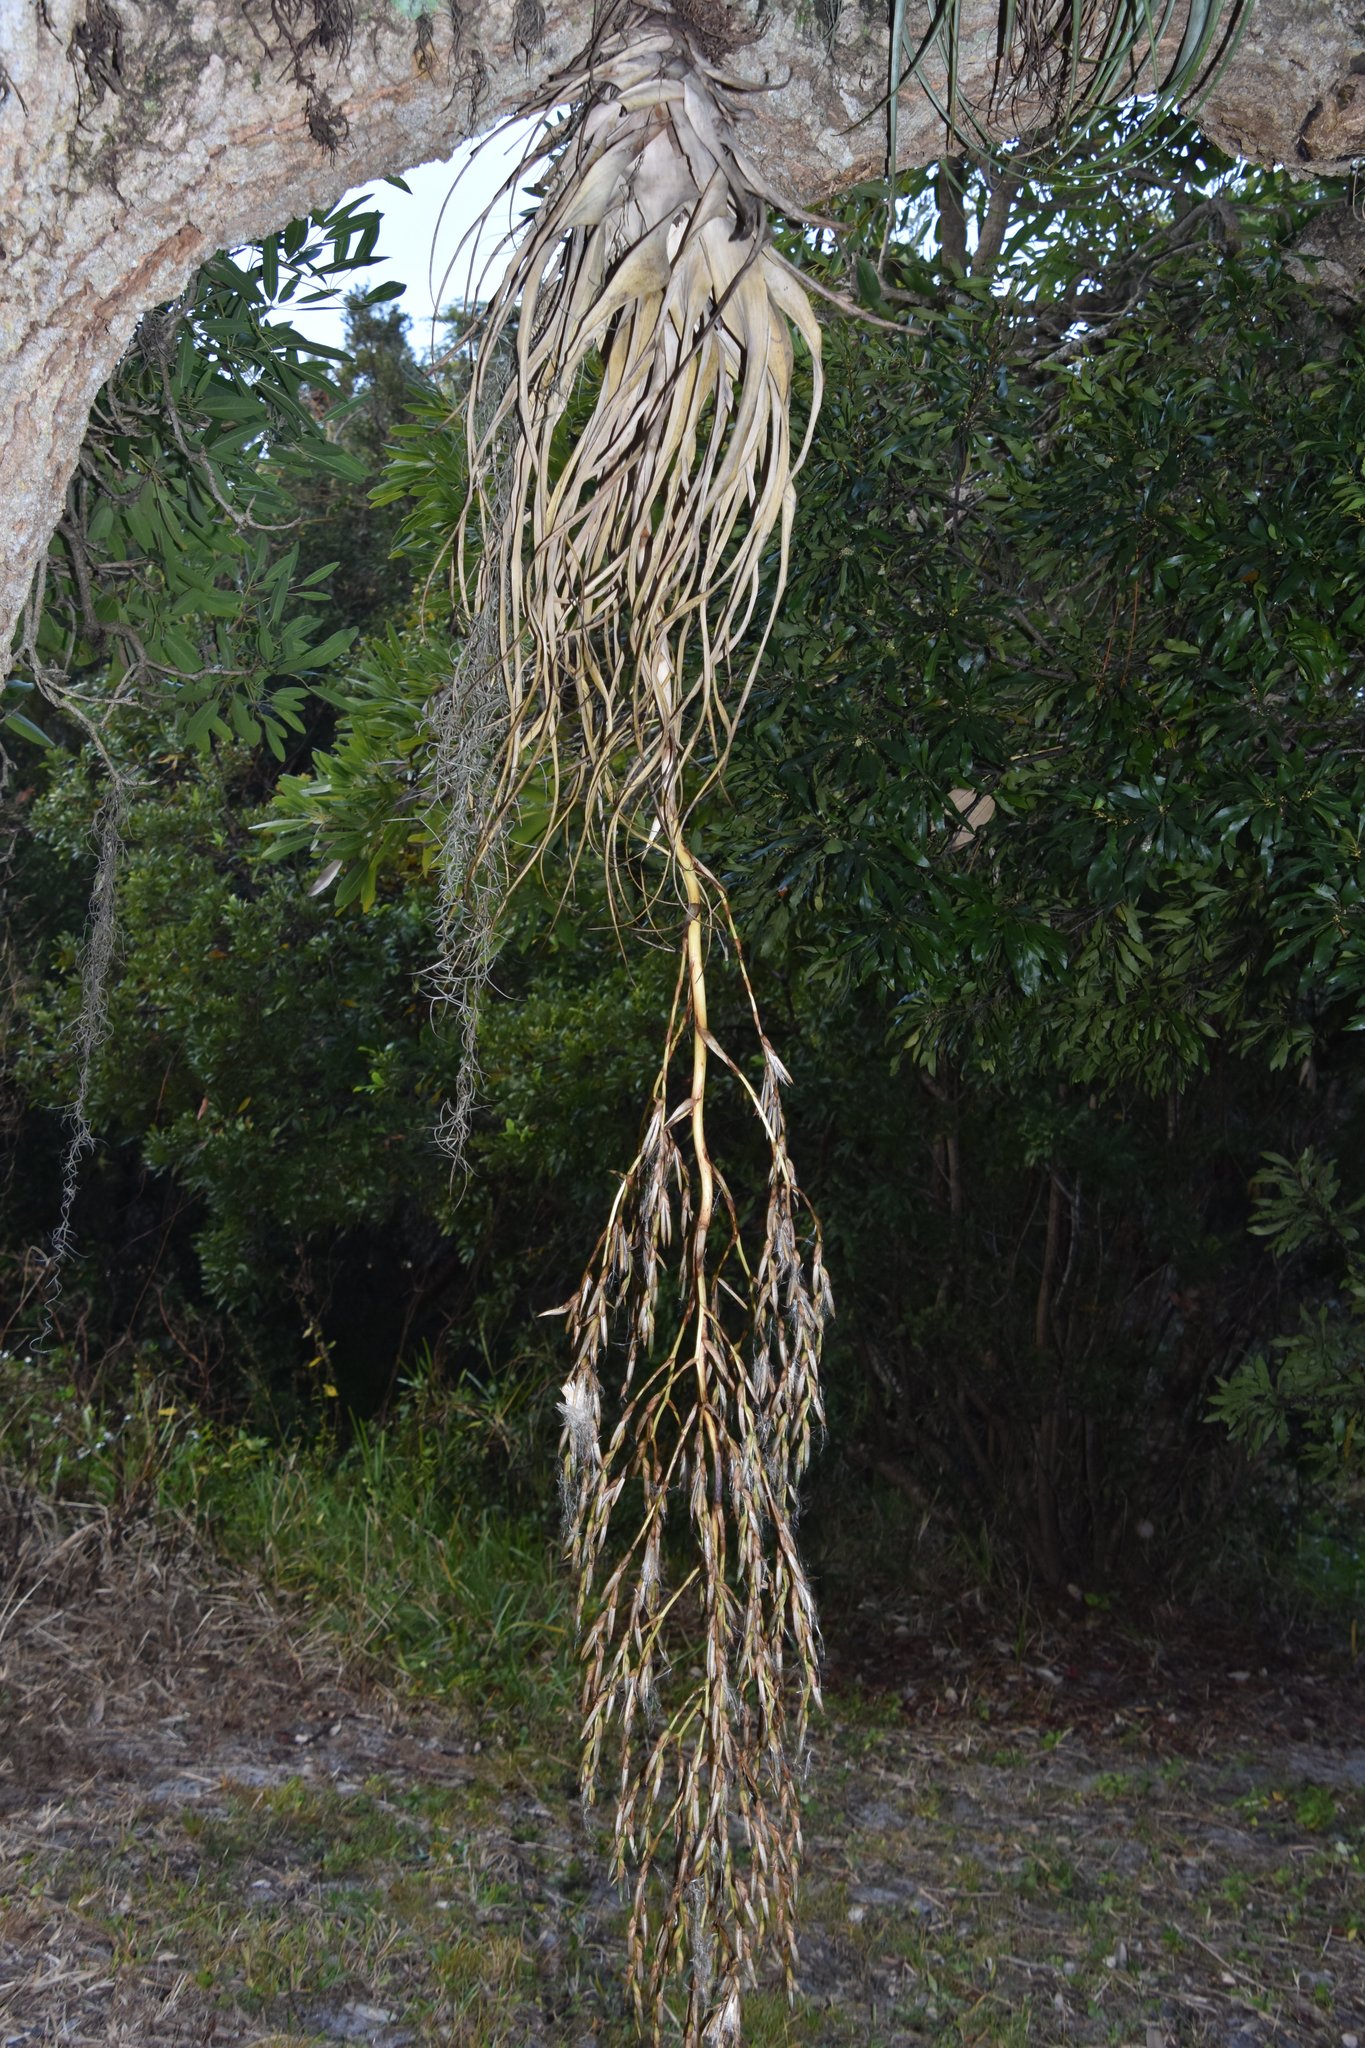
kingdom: Plantae
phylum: Tracheophyta
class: Liliopsida
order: Poales
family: Bromeliaceae
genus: Tillandsia
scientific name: Tillandsia utriculata
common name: Wild pine
